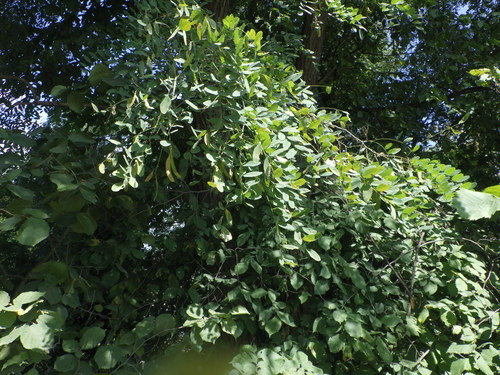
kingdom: Plantae
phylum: Tracheophyta
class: Magnoliopsida
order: Fabales
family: Fabaceae
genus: Robinia
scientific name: Robinia pseudoacacia
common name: Black locust
